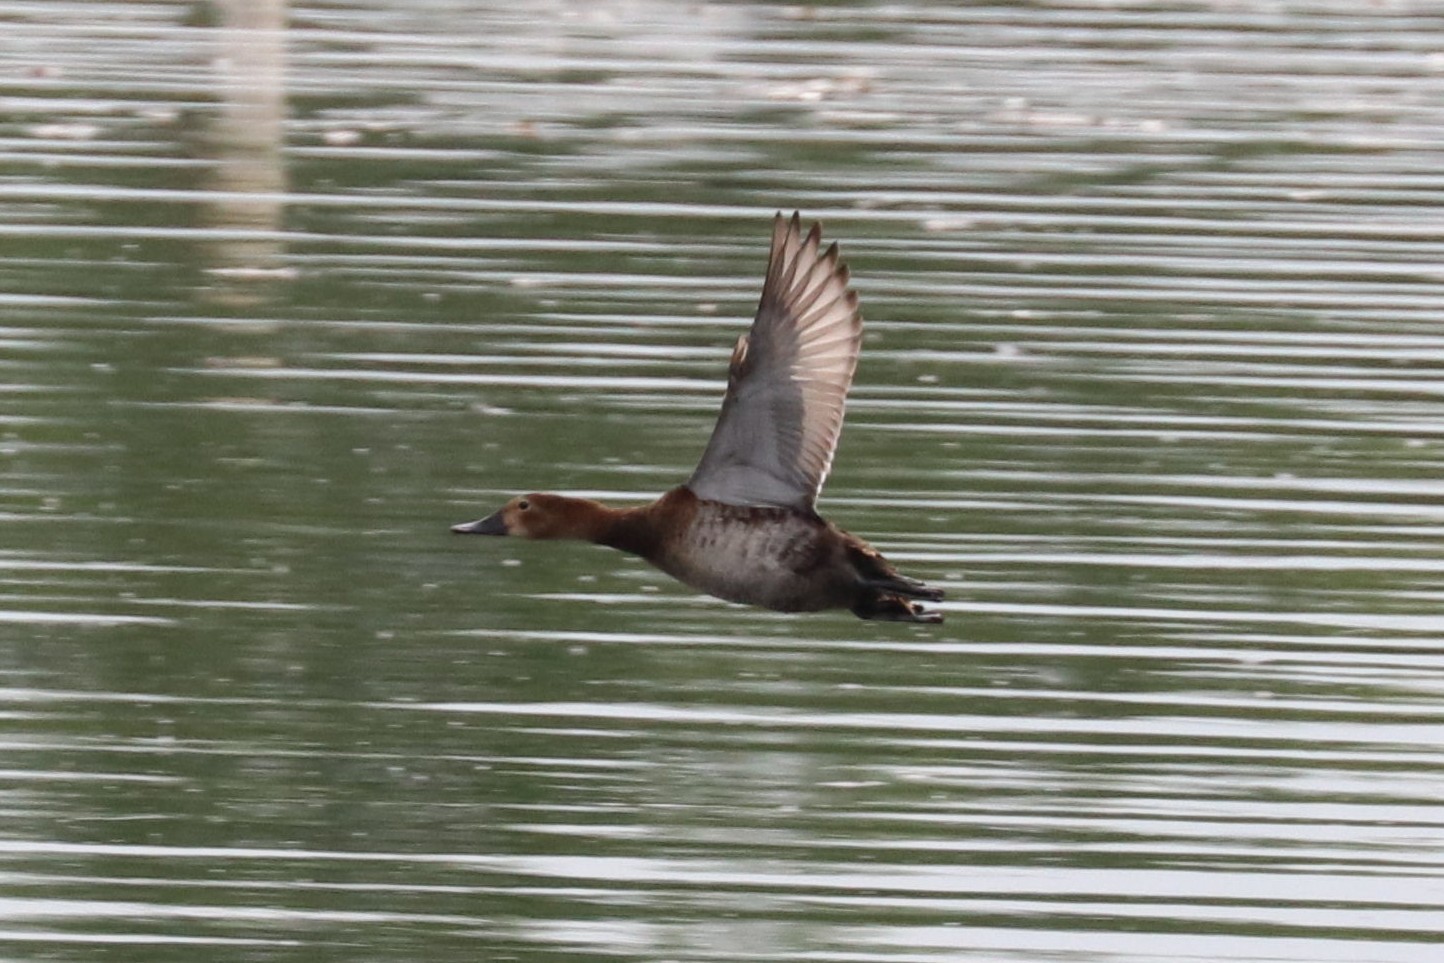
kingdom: Animalia
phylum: Chordata
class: Aves
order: Anseriformes
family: Anatidae
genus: Aythya
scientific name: Aythya ferina
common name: Common pochard
